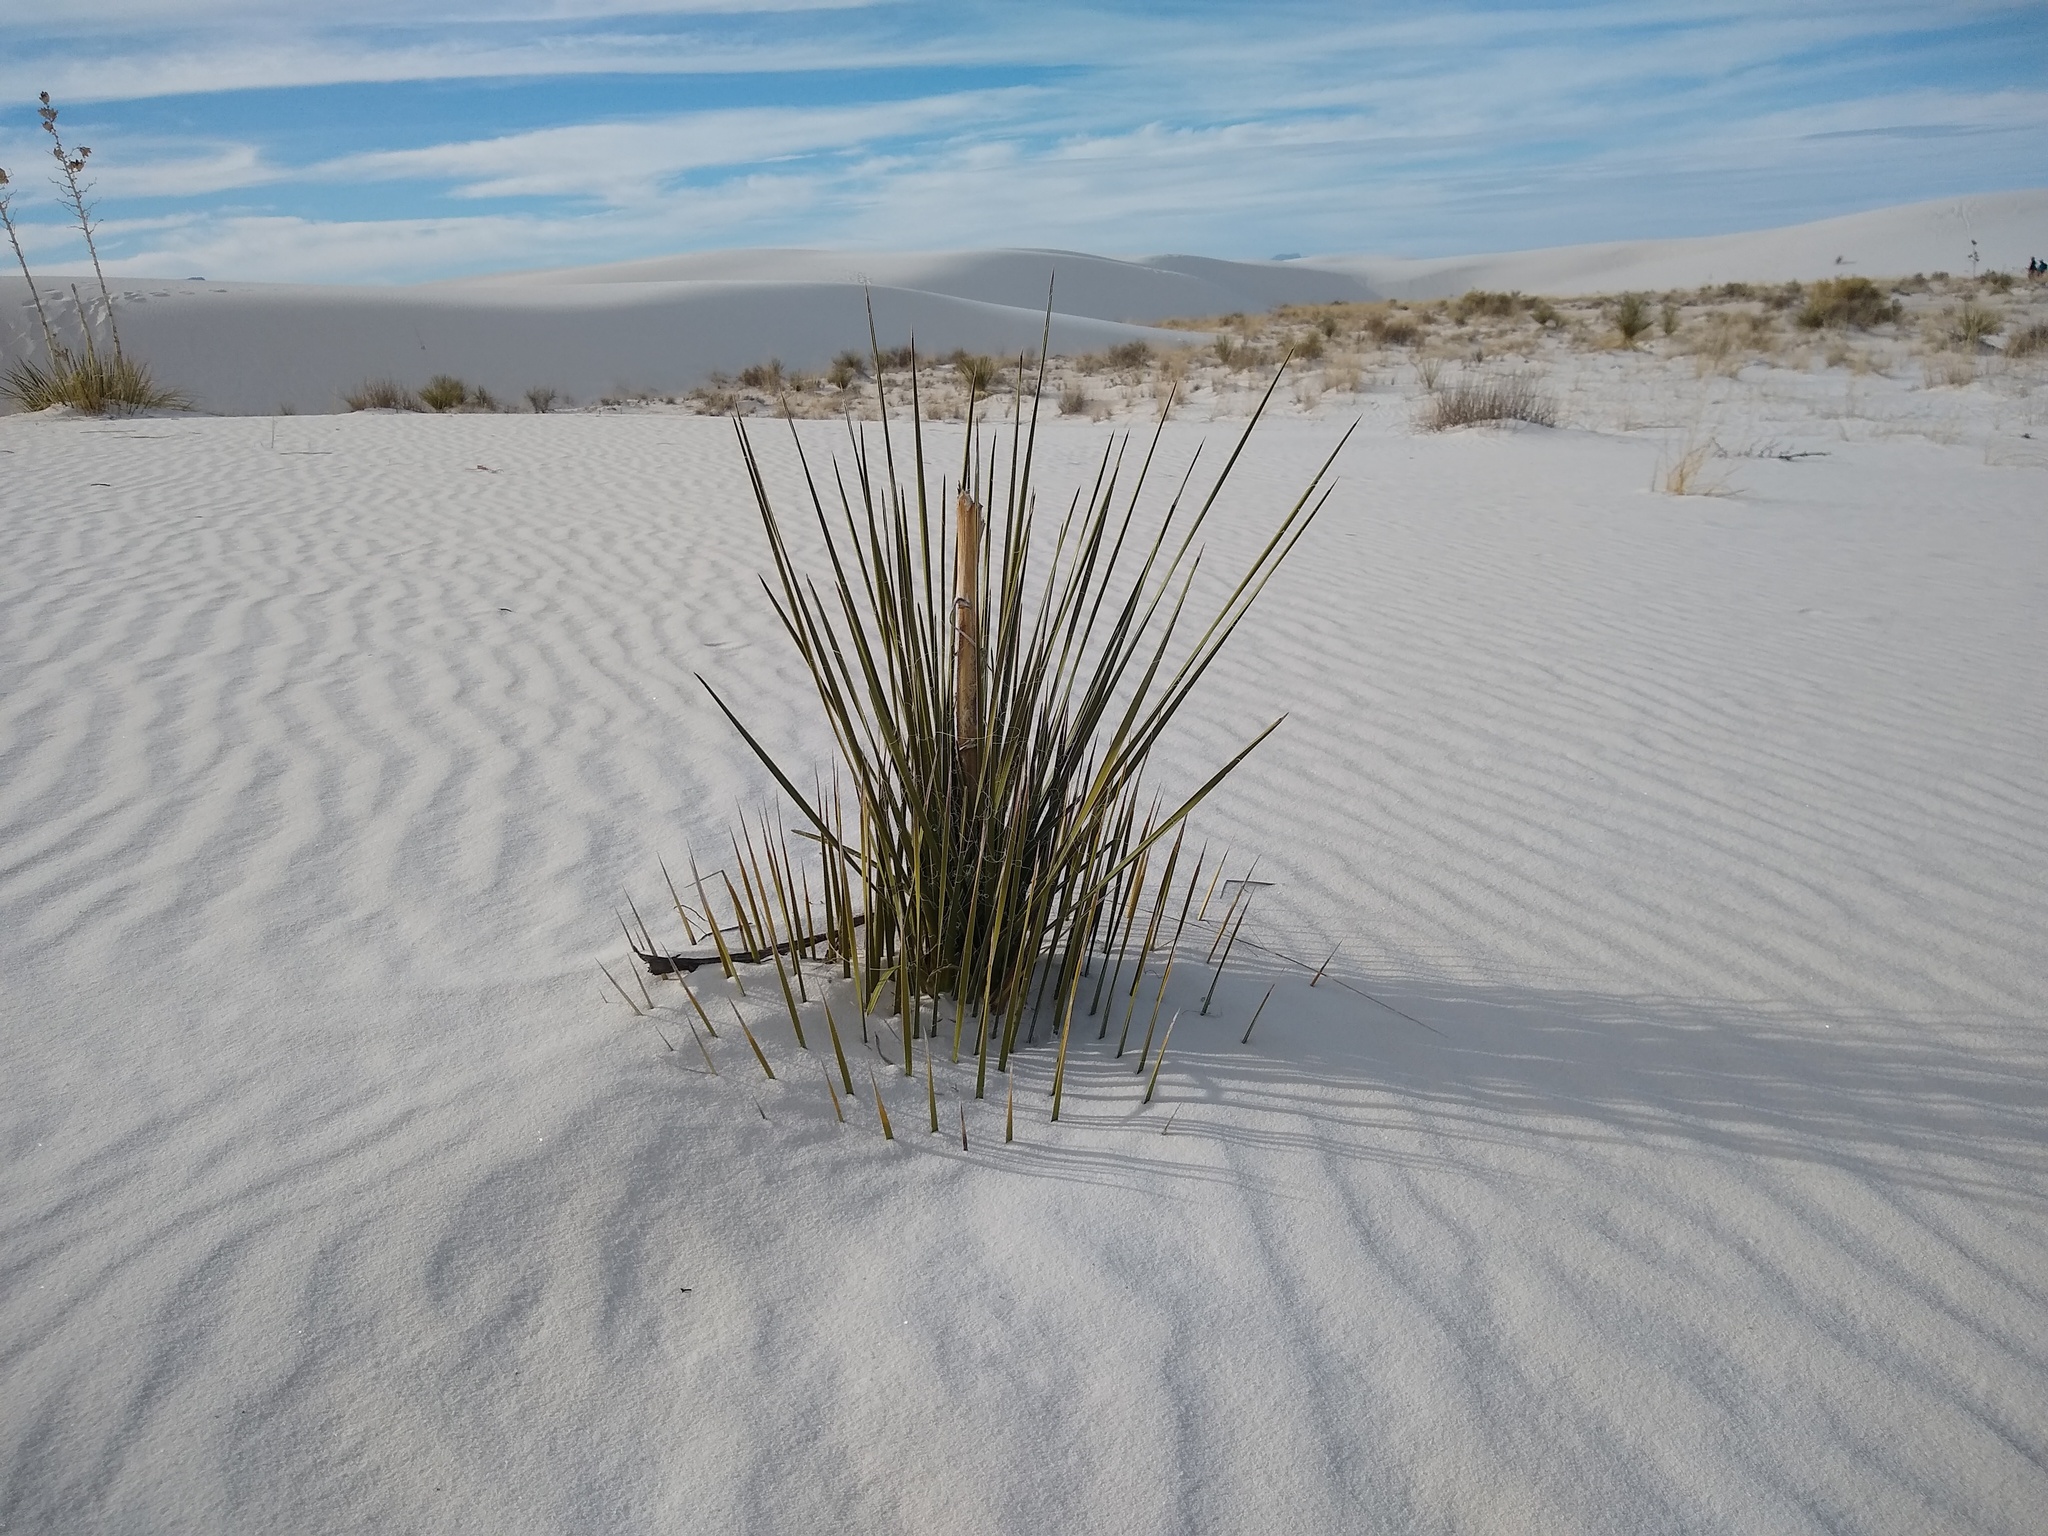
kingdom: Plantae
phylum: Tracheophyta
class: Liliopsida
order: Asparagales
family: Asparagaceae
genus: Yucca
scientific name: Yucca elata
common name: Palmella
